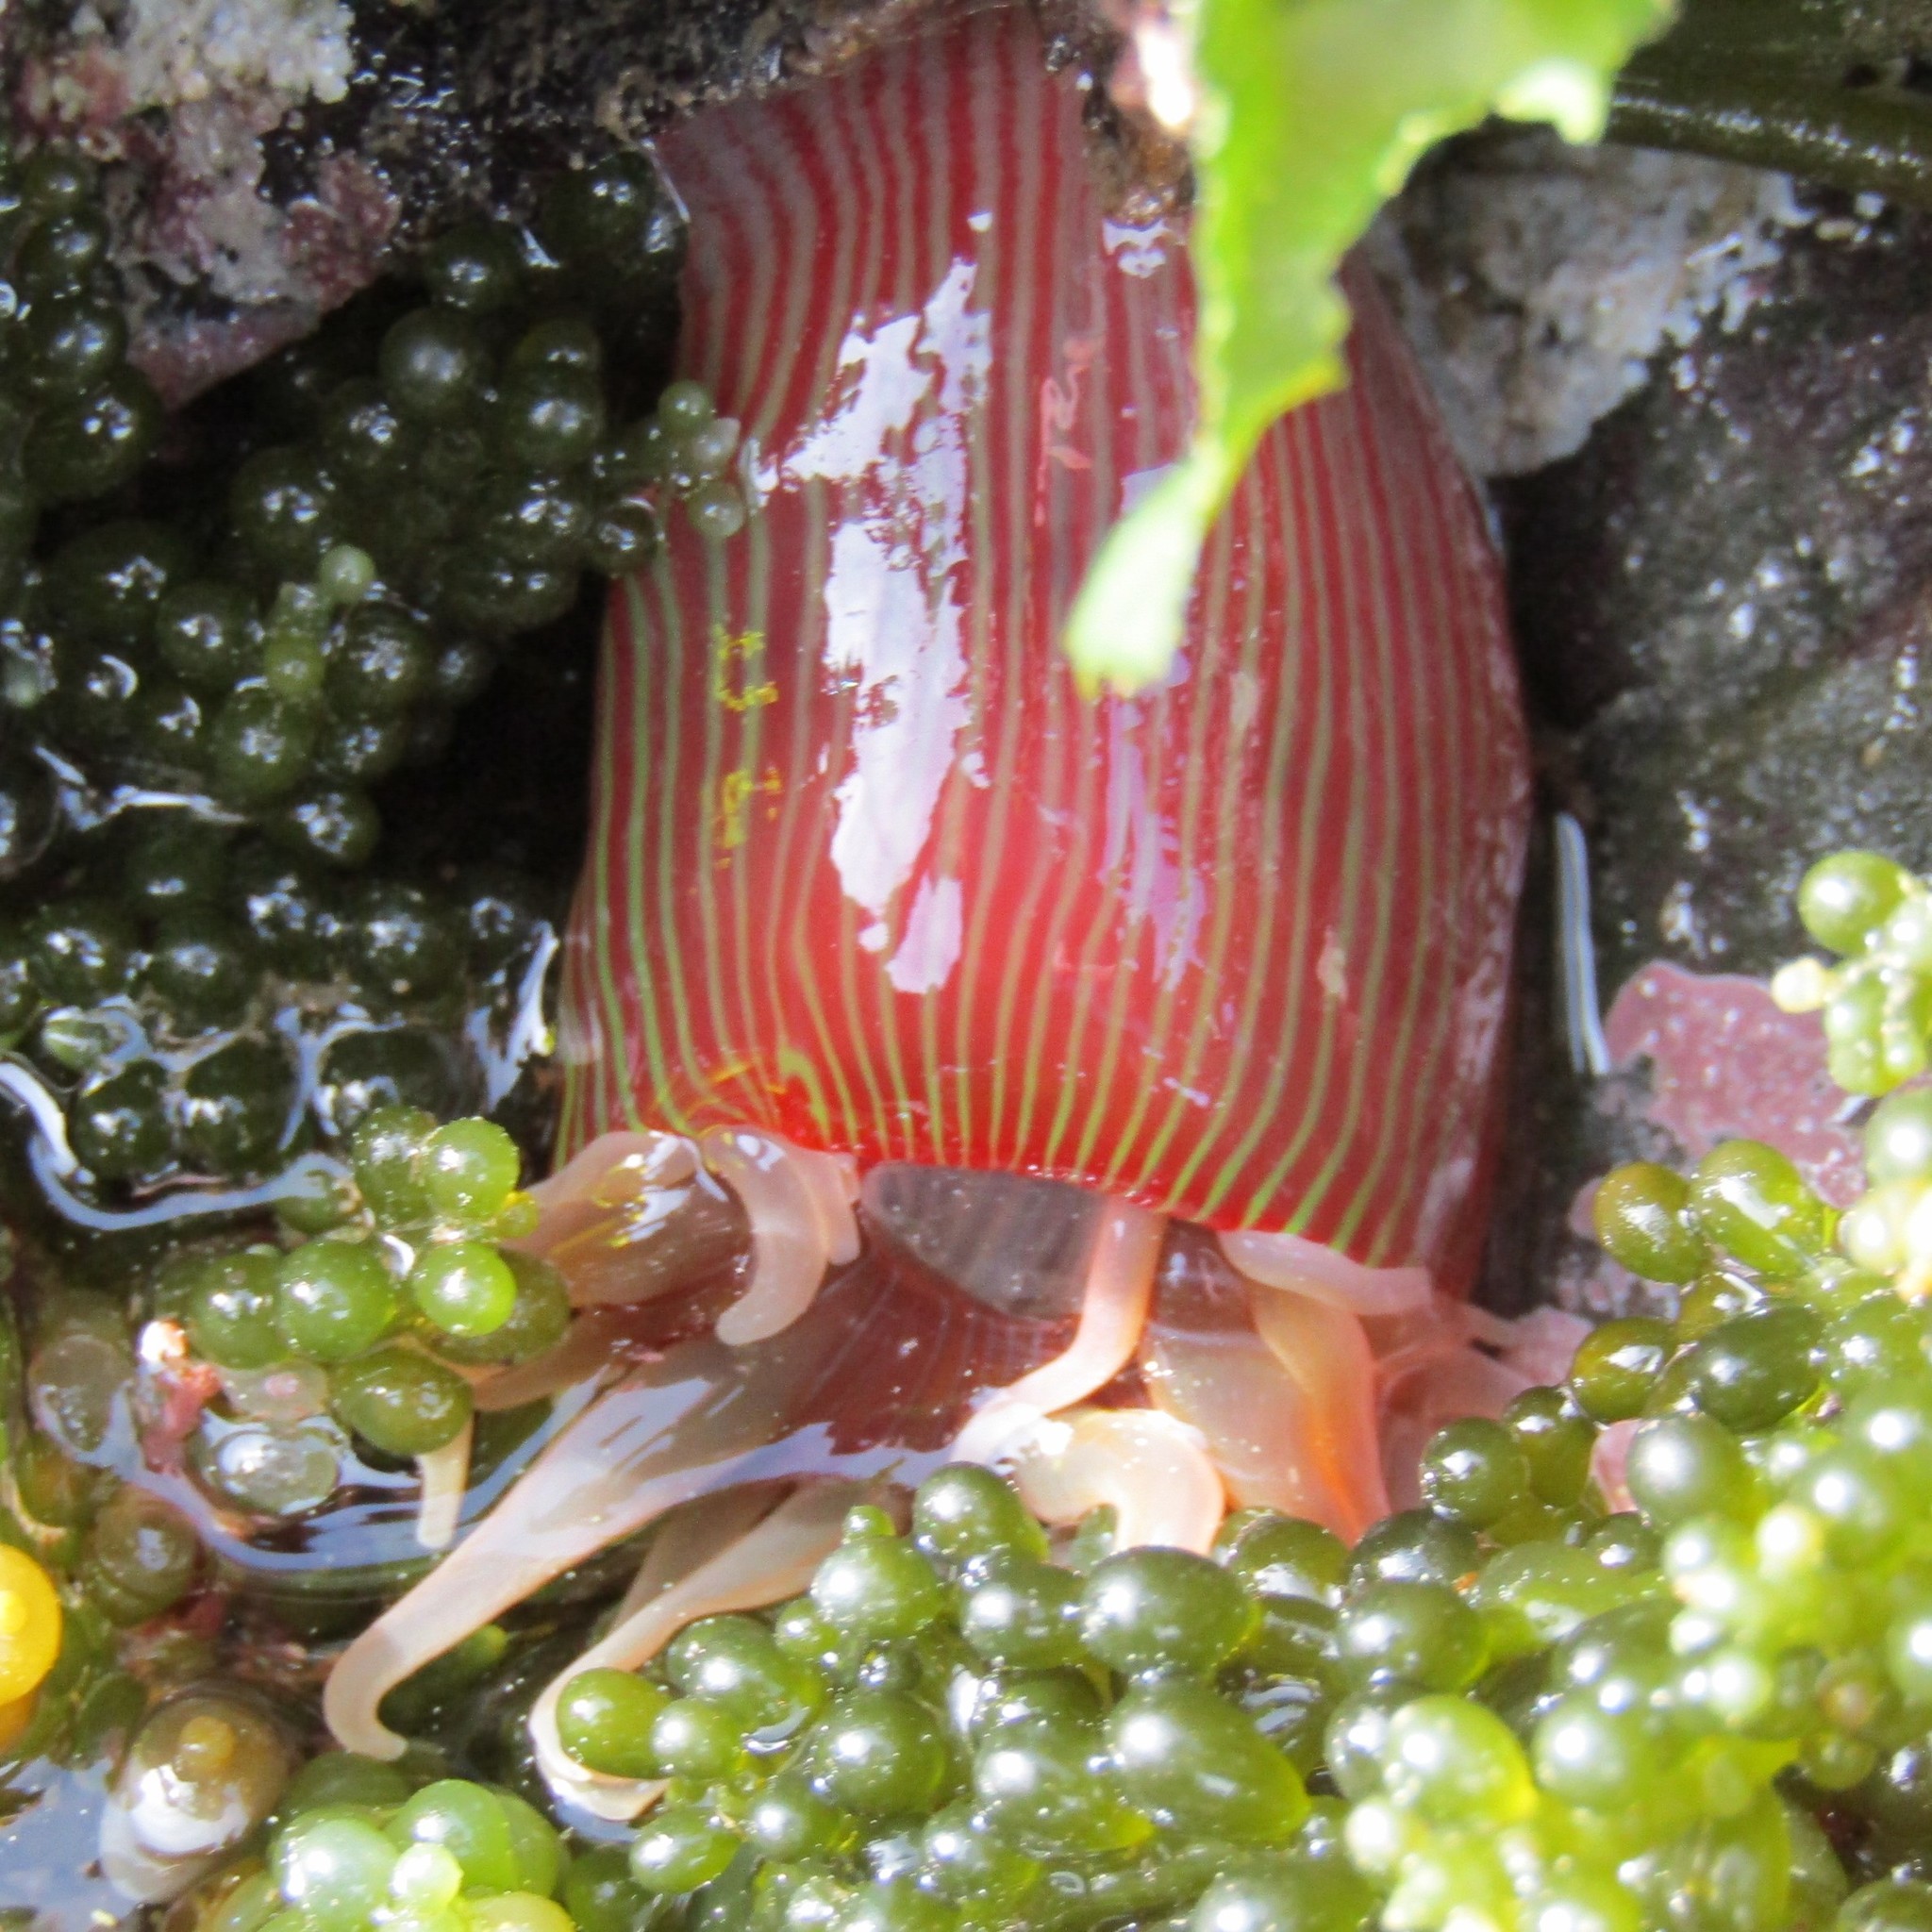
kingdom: Animalia
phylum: Cnidaria
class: Anthozoa
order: Actiniaria
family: Actiniidae
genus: Epiactis
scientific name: Epiactis thompsoni
